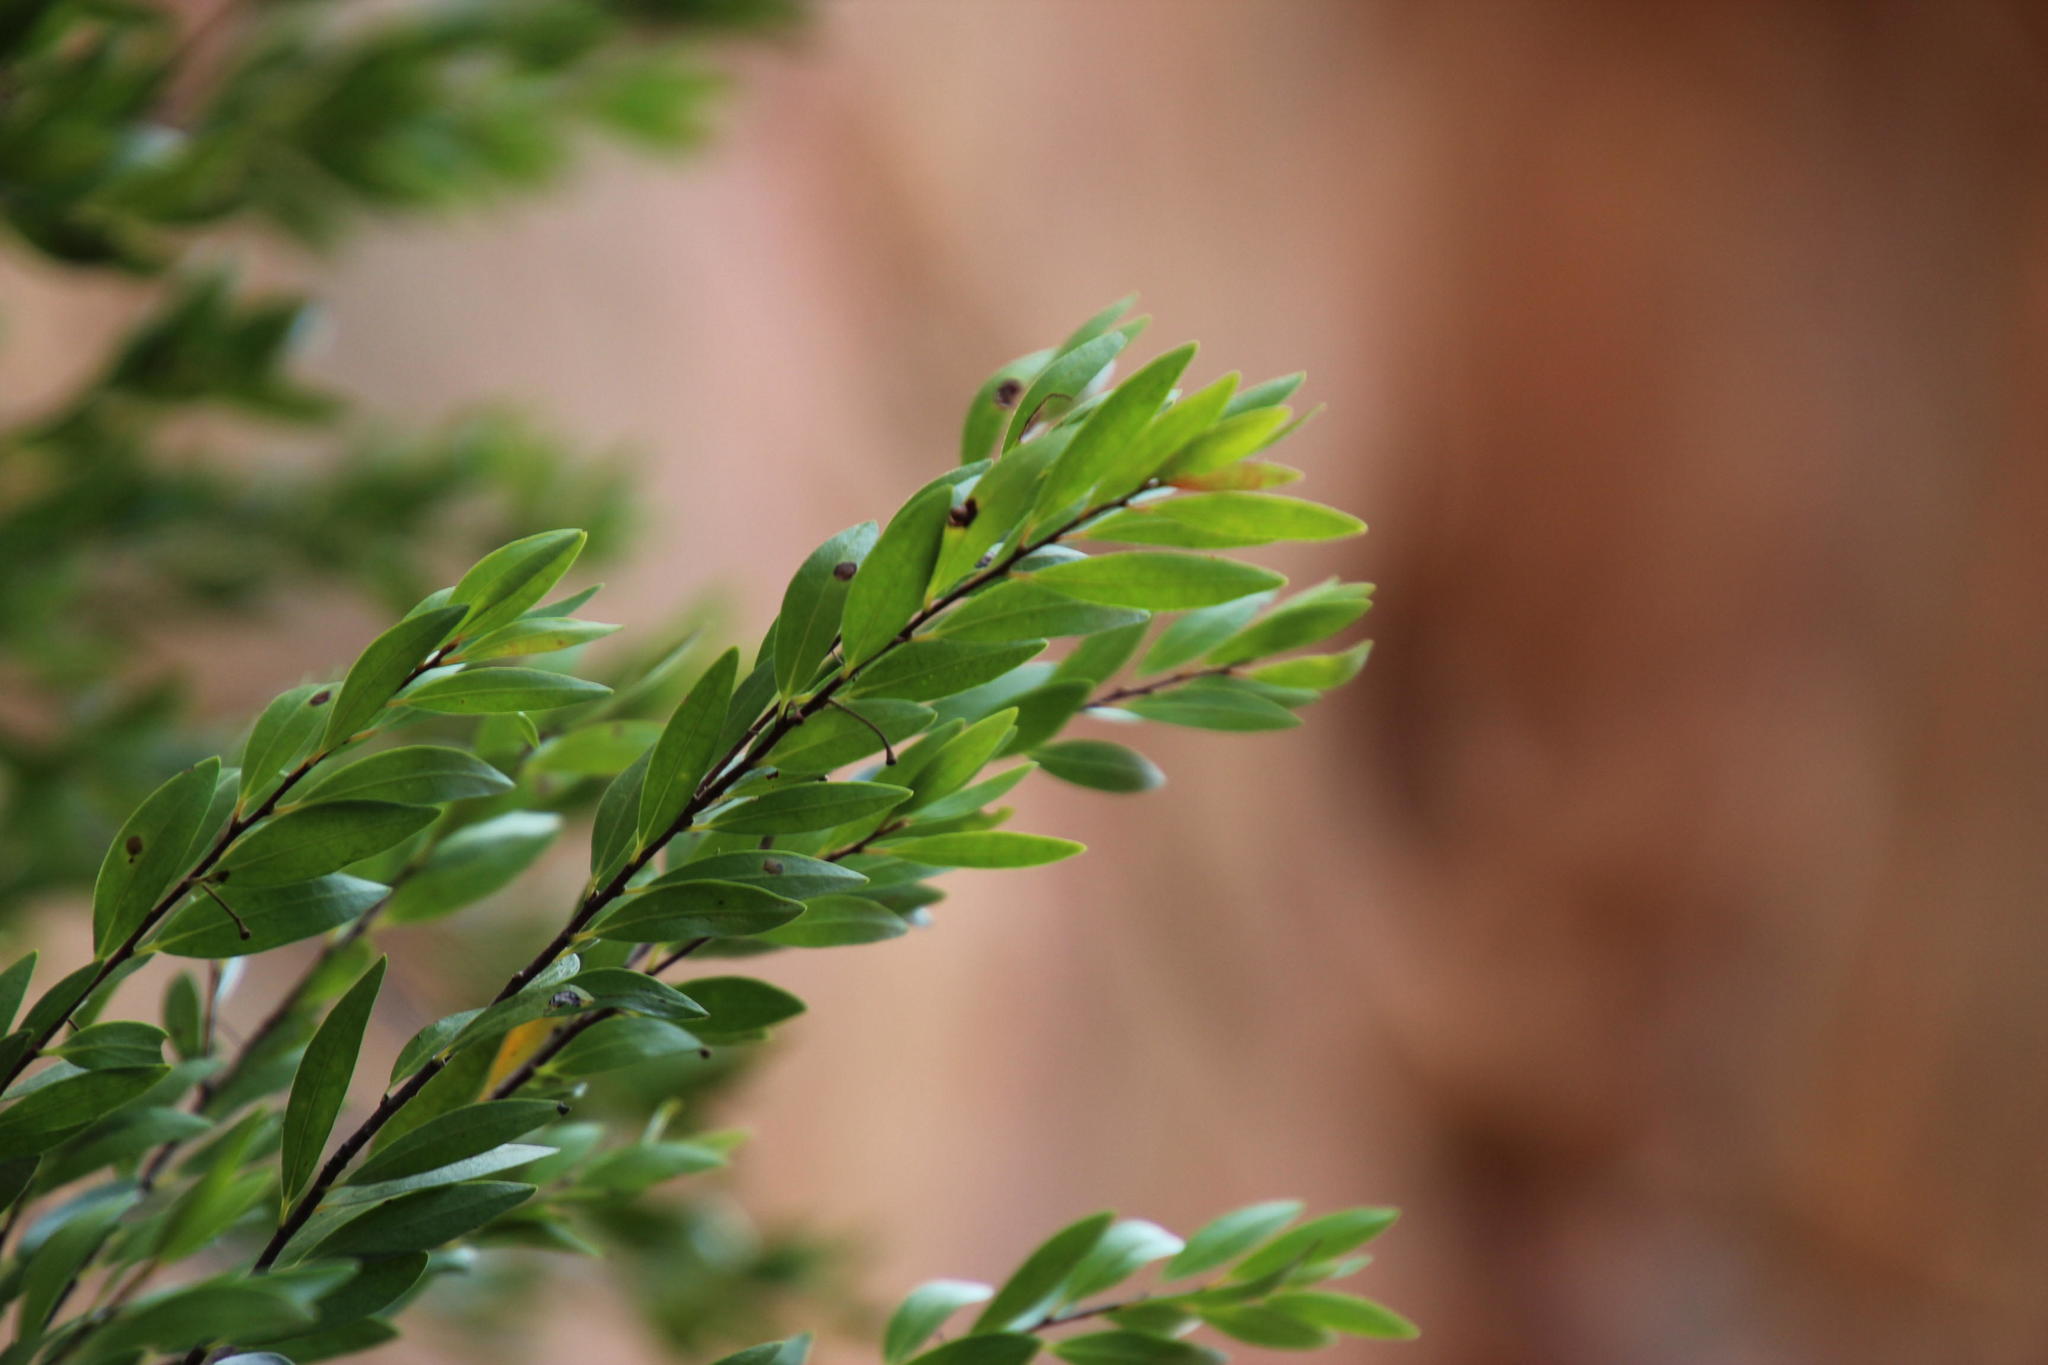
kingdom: Plantae
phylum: Tracheophyta
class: Magnoliopsida
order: Ericales
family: Ebenaceae
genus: Diospyros
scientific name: Diospyros glabra
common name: Fynbos star apple
